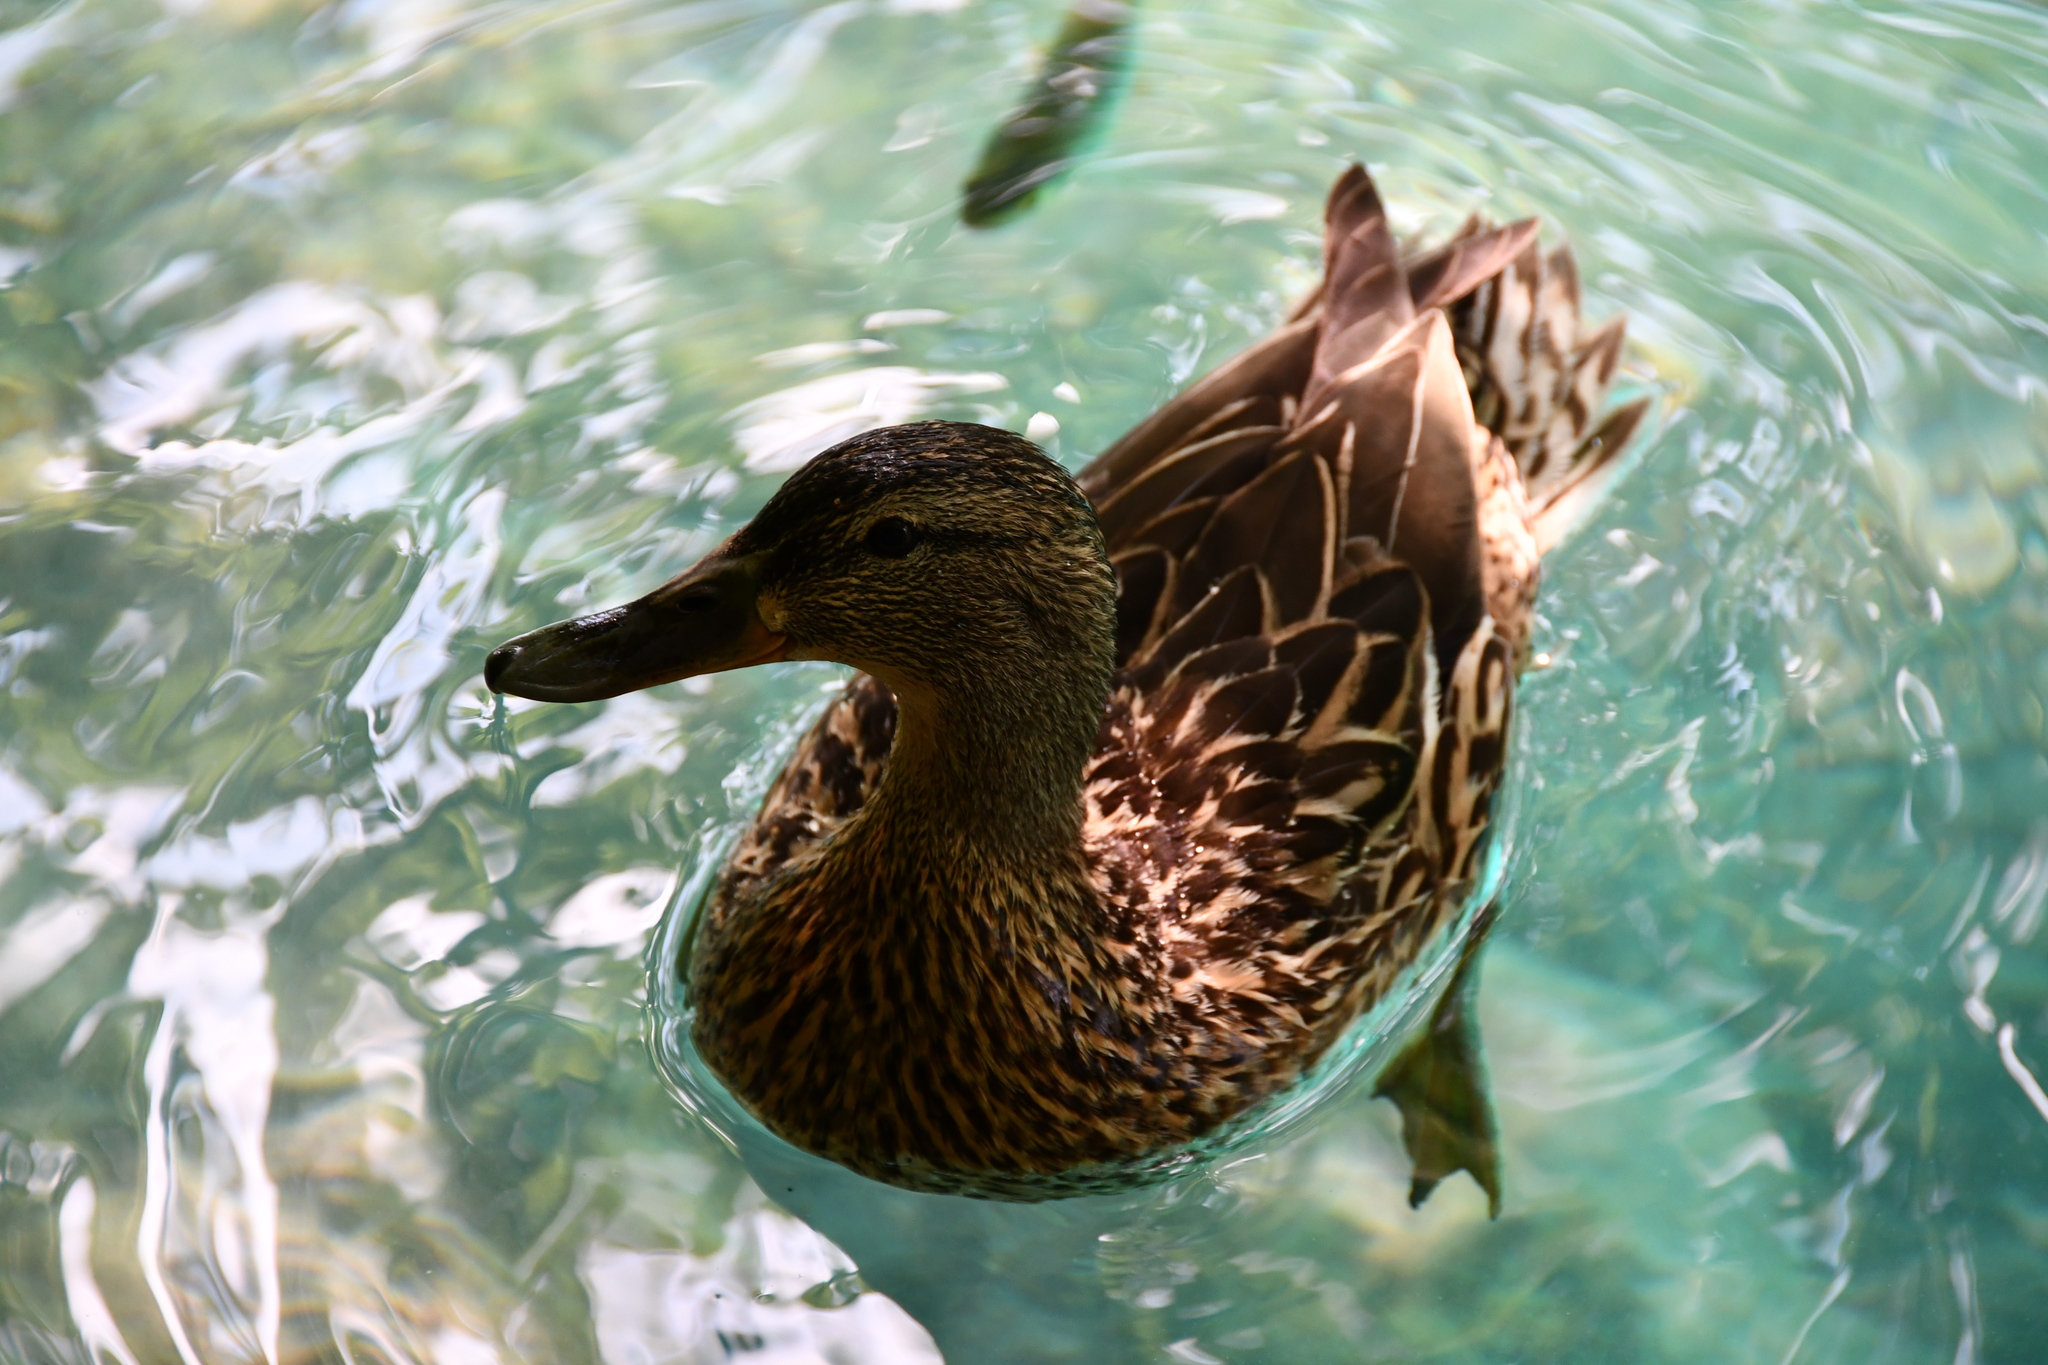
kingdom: Animalia
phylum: Chordata
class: Aves
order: Anseriformes
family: Anatidae
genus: Anas
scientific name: Anas platyrhynchos
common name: Mallard
